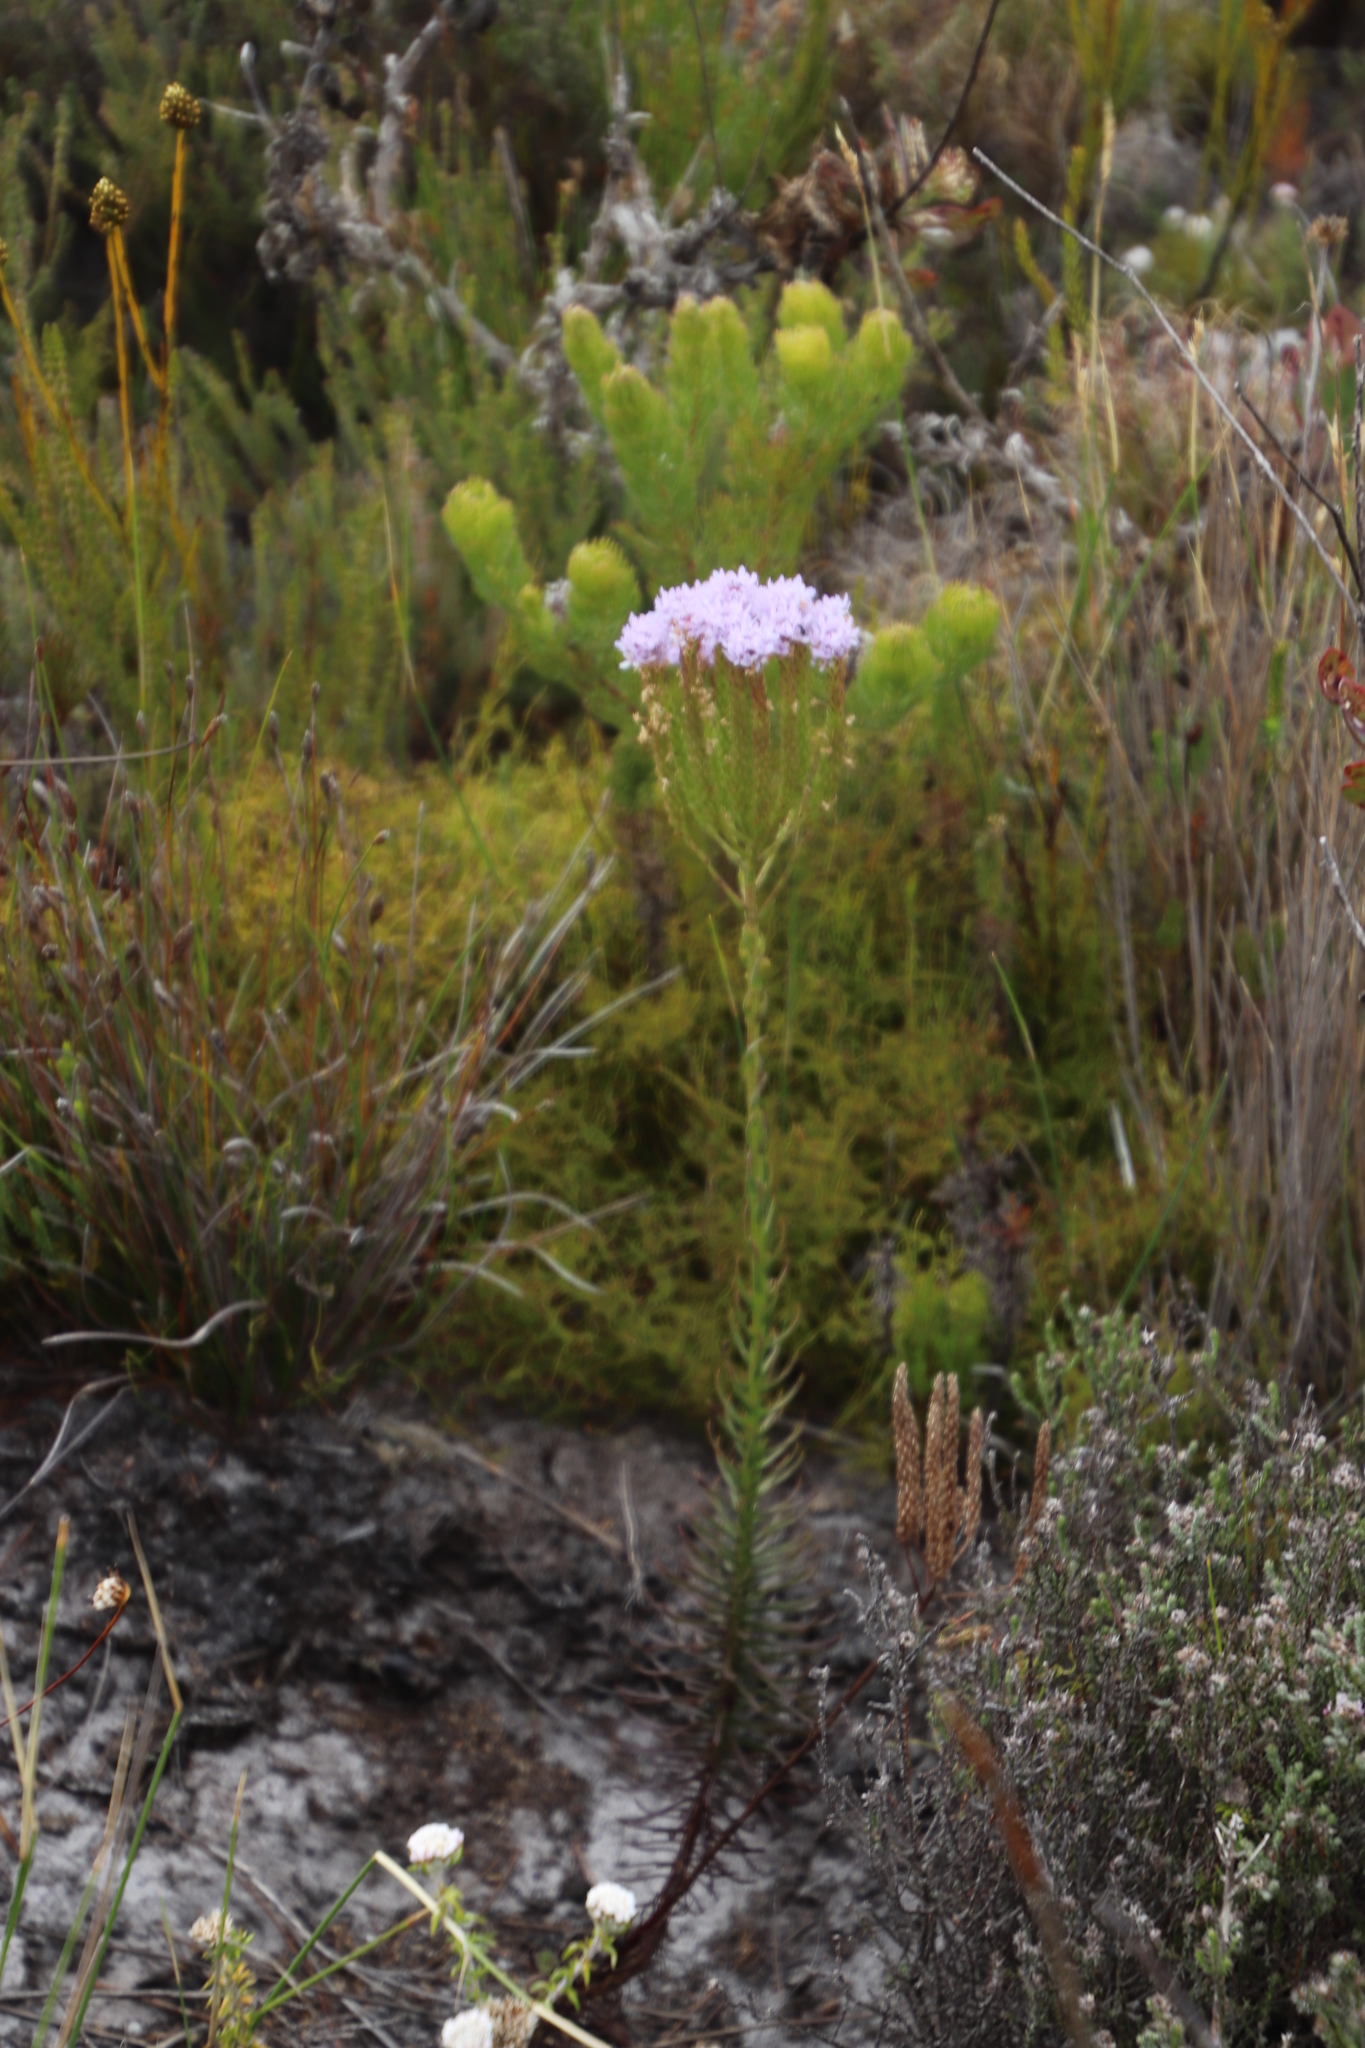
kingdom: Plantae
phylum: Tracheophyta
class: Magnoliopsida
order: Lamiales
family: Scrophulariaceae
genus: Pseudoselago
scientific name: Pseudoselago spuria
